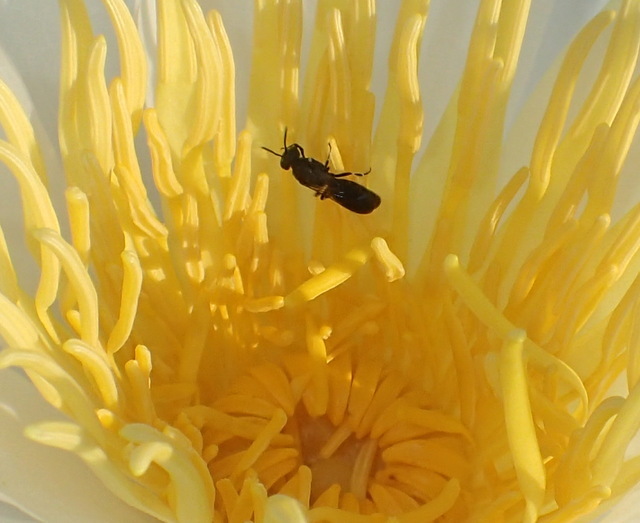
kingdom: Animalia
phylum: Arthropoda
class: Insecta
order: Hymenoptera
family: Colletidae
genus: Hylaeus
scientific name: Hylaeus schwarzii
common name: Schwarz's masked bee
